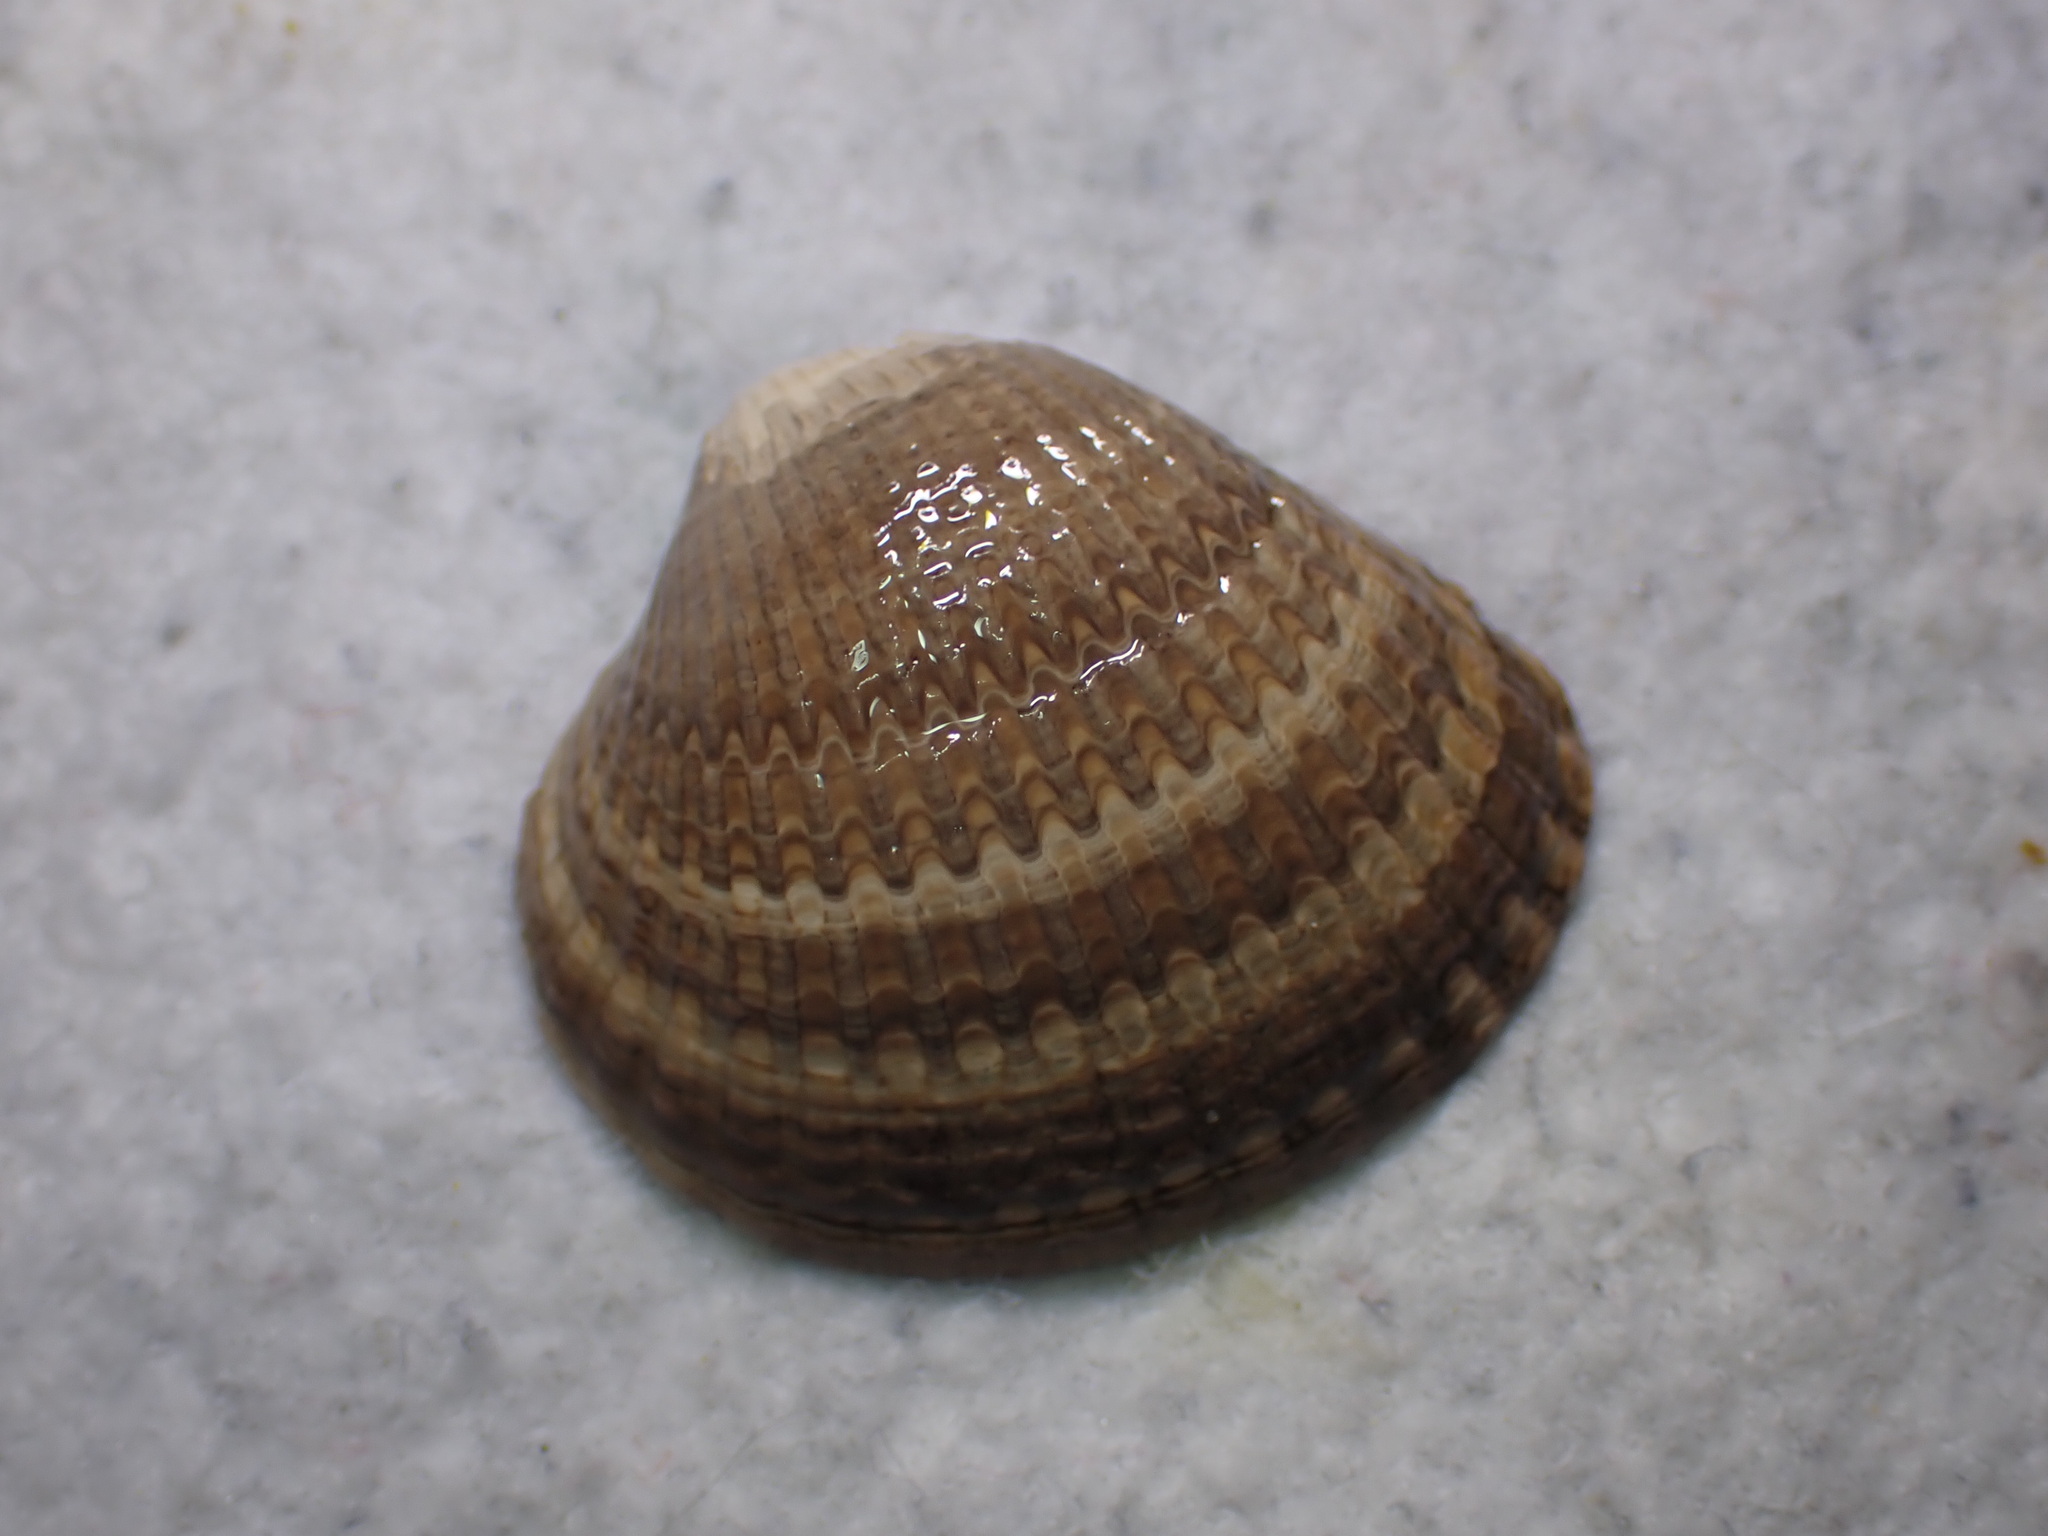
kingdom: Animalia
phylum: Mollusca
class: Bivalvia
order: Cardiida
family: Cardiidae
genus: Cerastoderma
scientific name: Cerastoderma edule
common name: Common cockle
